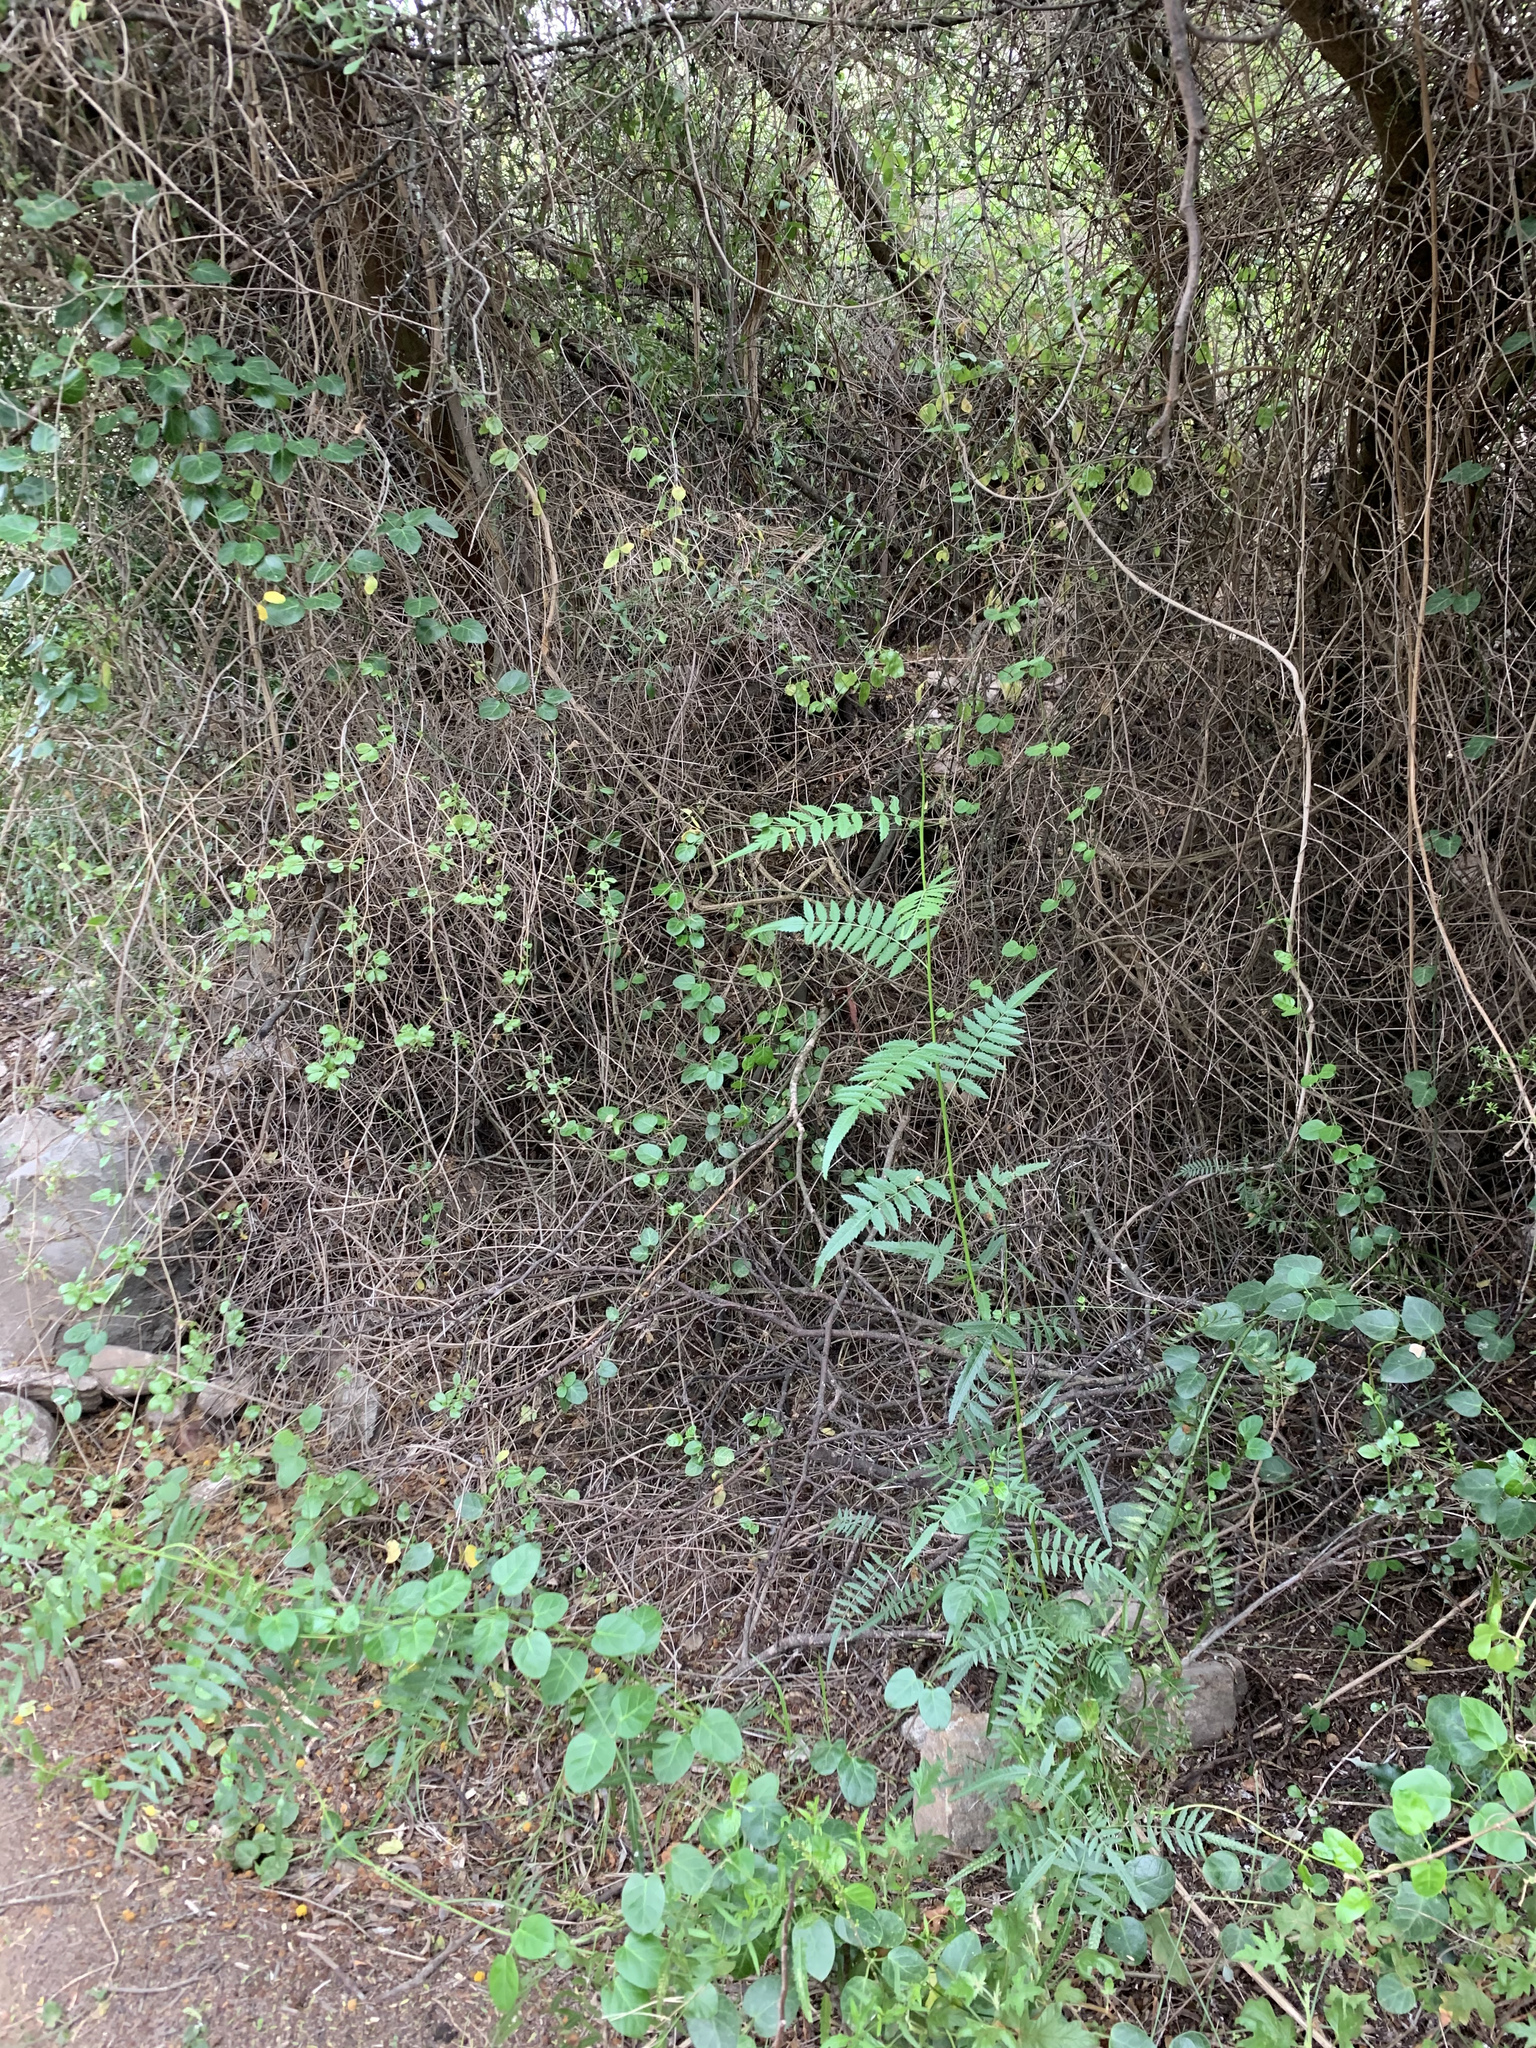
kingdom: Plantae
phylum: Tracheophyta
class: Magnoliopsida
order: Sapindales
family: Anacardiaceae
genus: Schinus
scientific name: Schinus molle
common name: Peruvian peppertree
